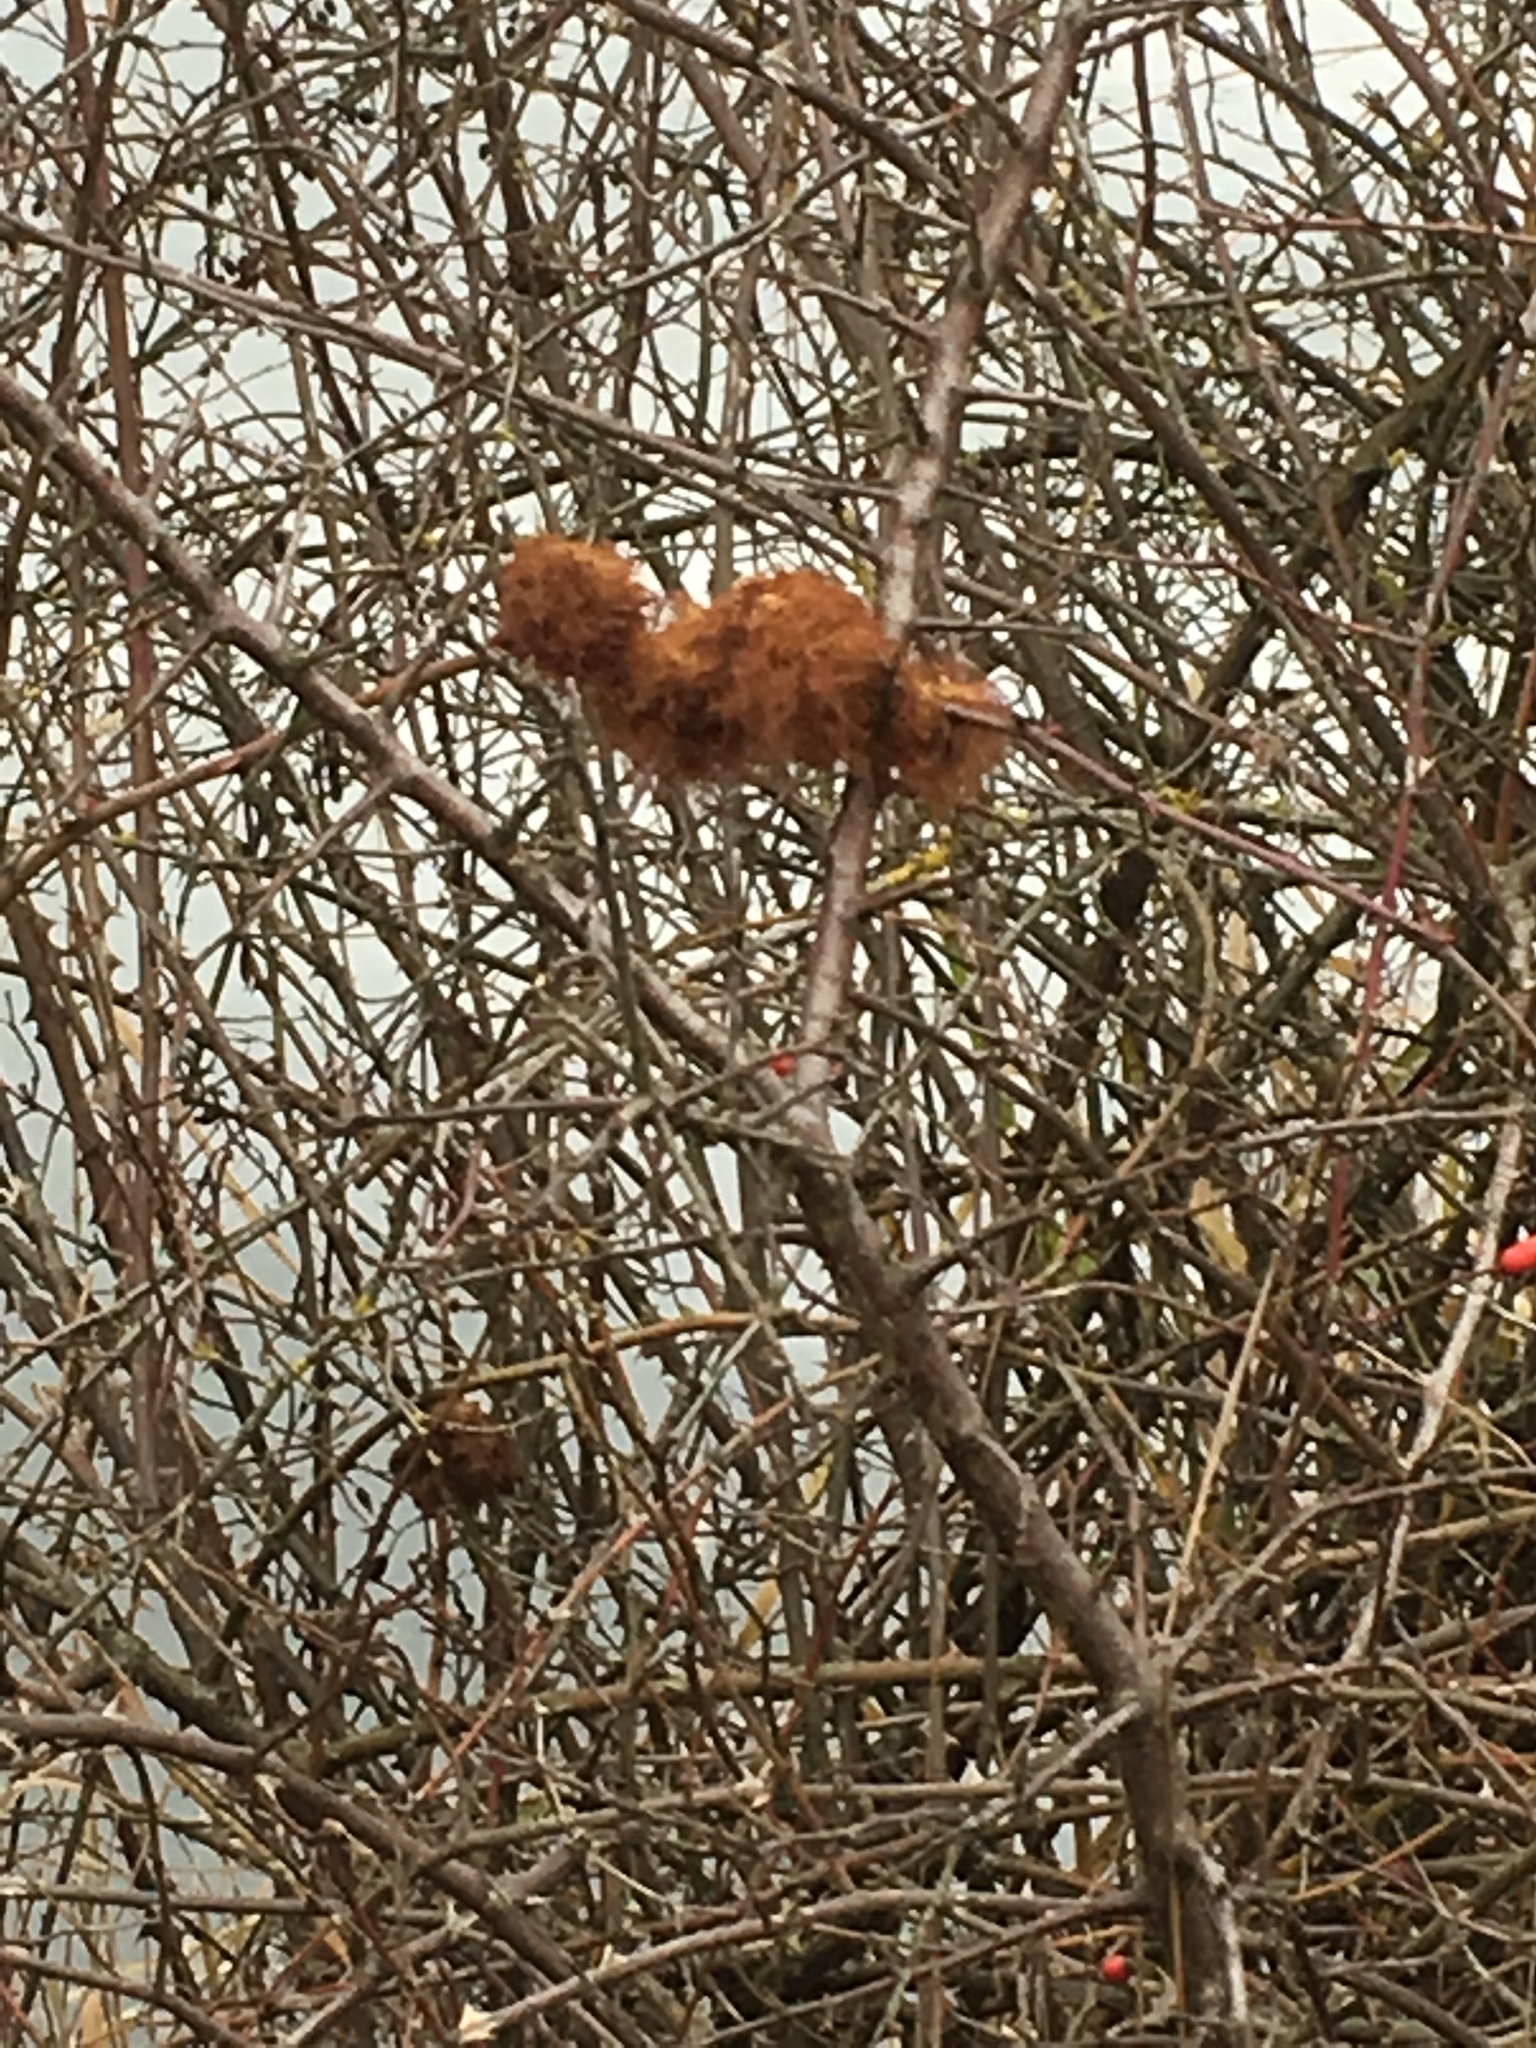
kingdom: Animalia
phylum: Arthropoda
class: Insecta
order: Hymenoptera
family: Cynipidae
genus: Diplolepis
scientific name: Diplolepis rosae
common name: Bedeguar gall
